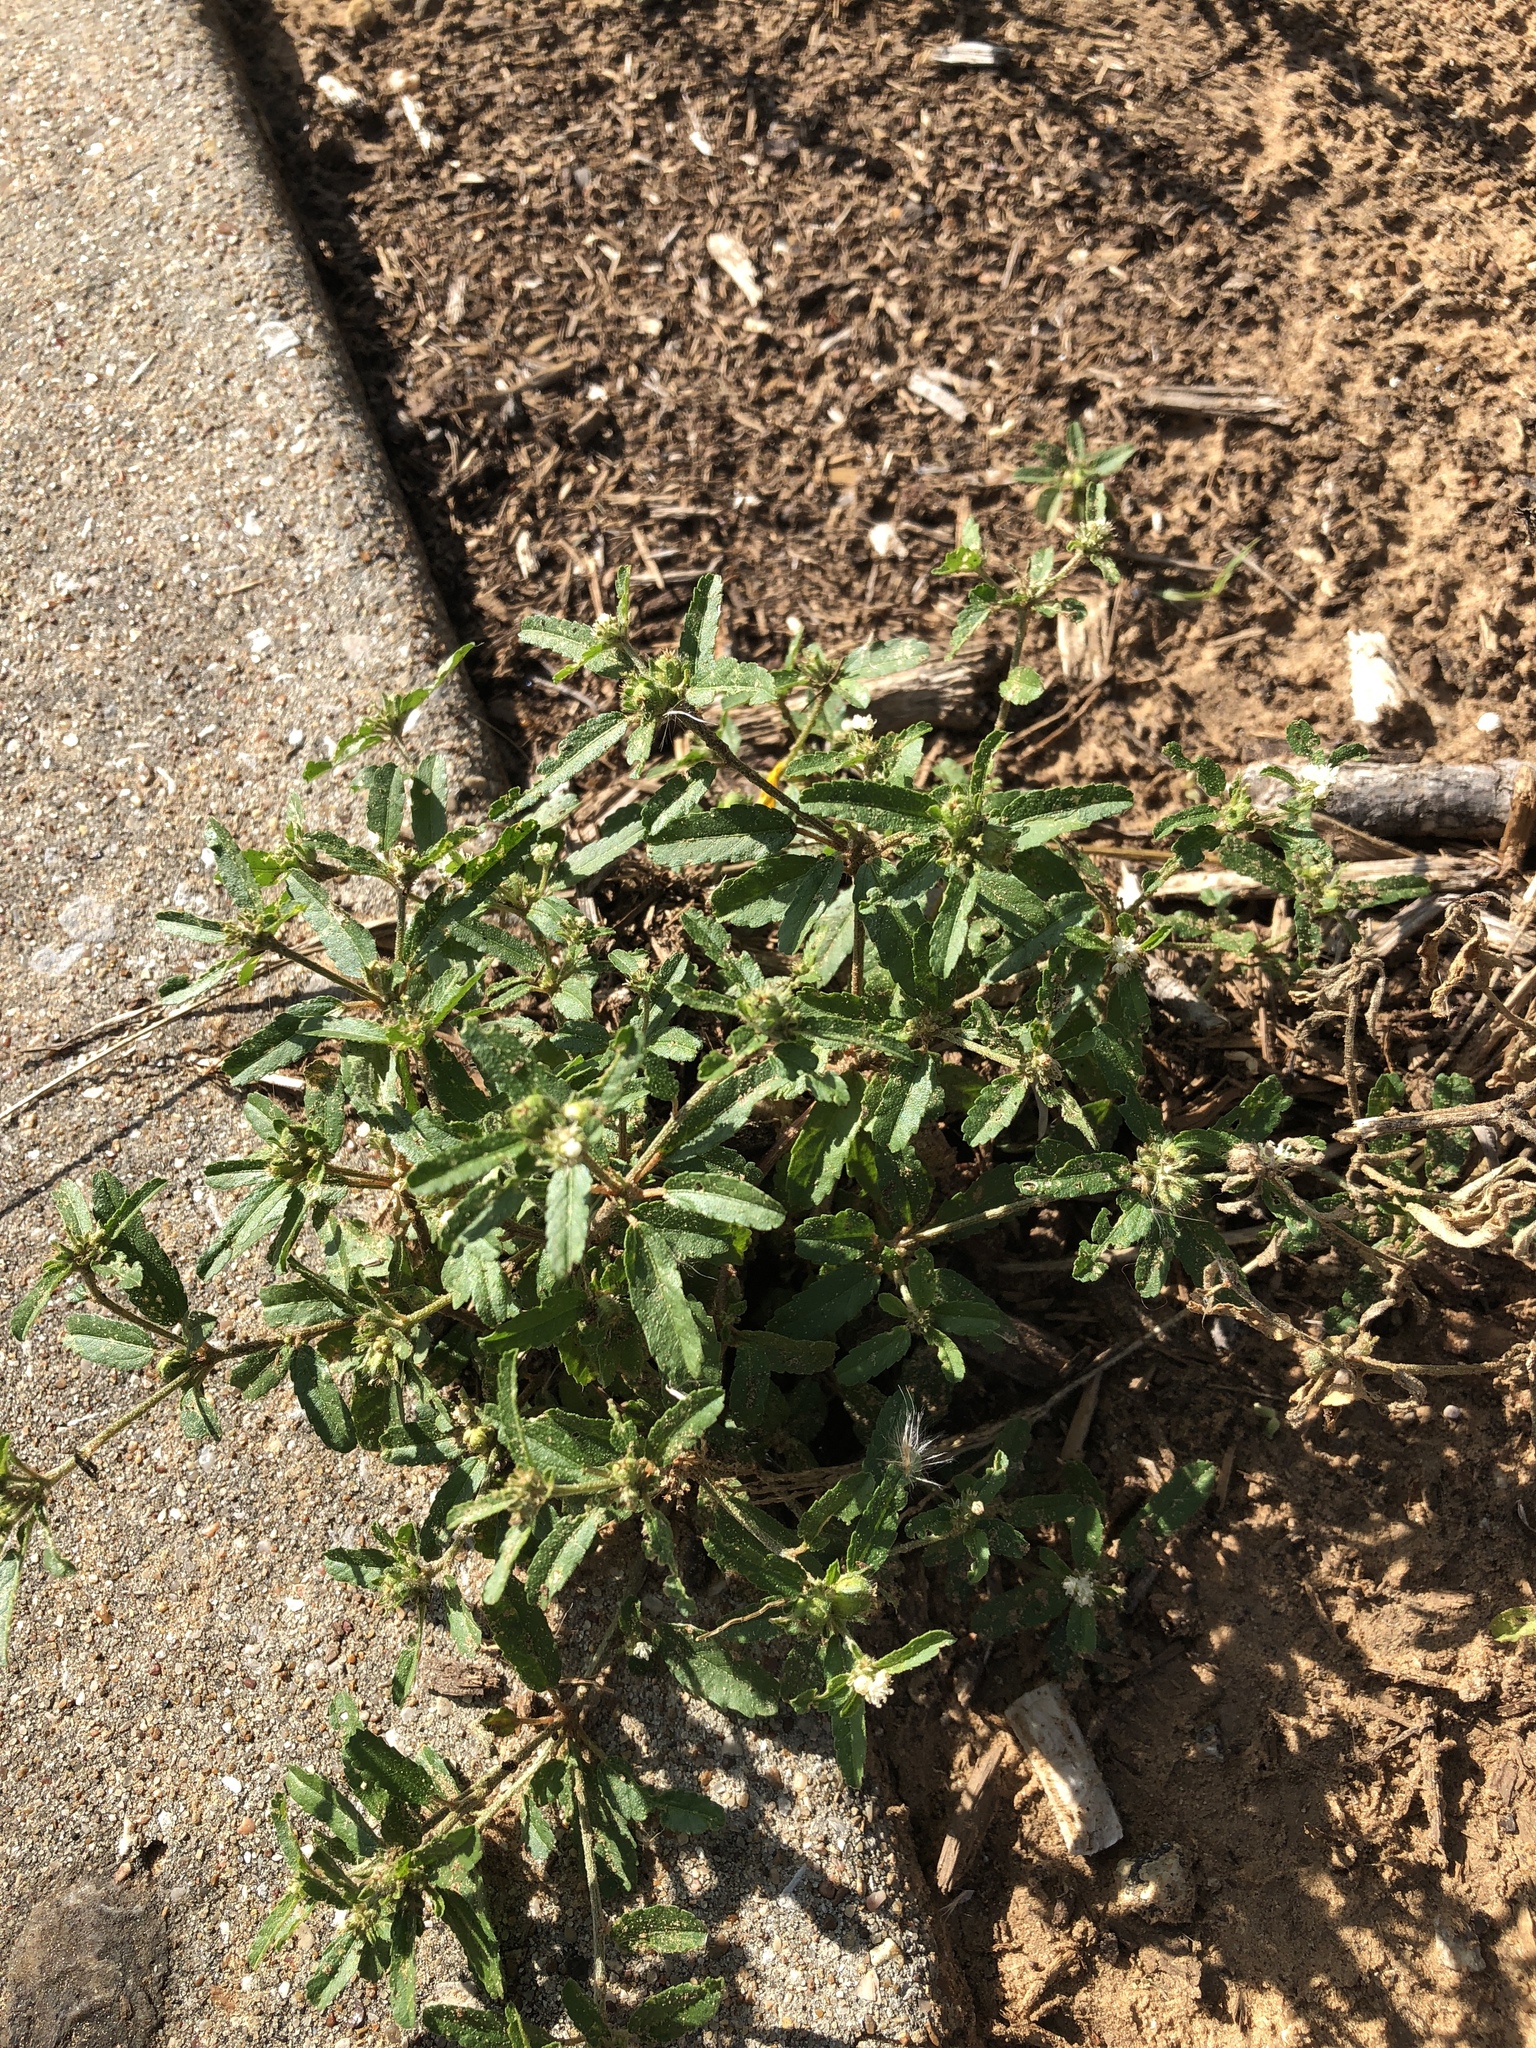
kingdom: Plantae
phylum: Tracheophyta
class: Magnoliopsida
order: Malpighiales
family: Euphorbiaceae
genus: Croton
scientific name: Croton glandulosus
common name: Tropic croton
